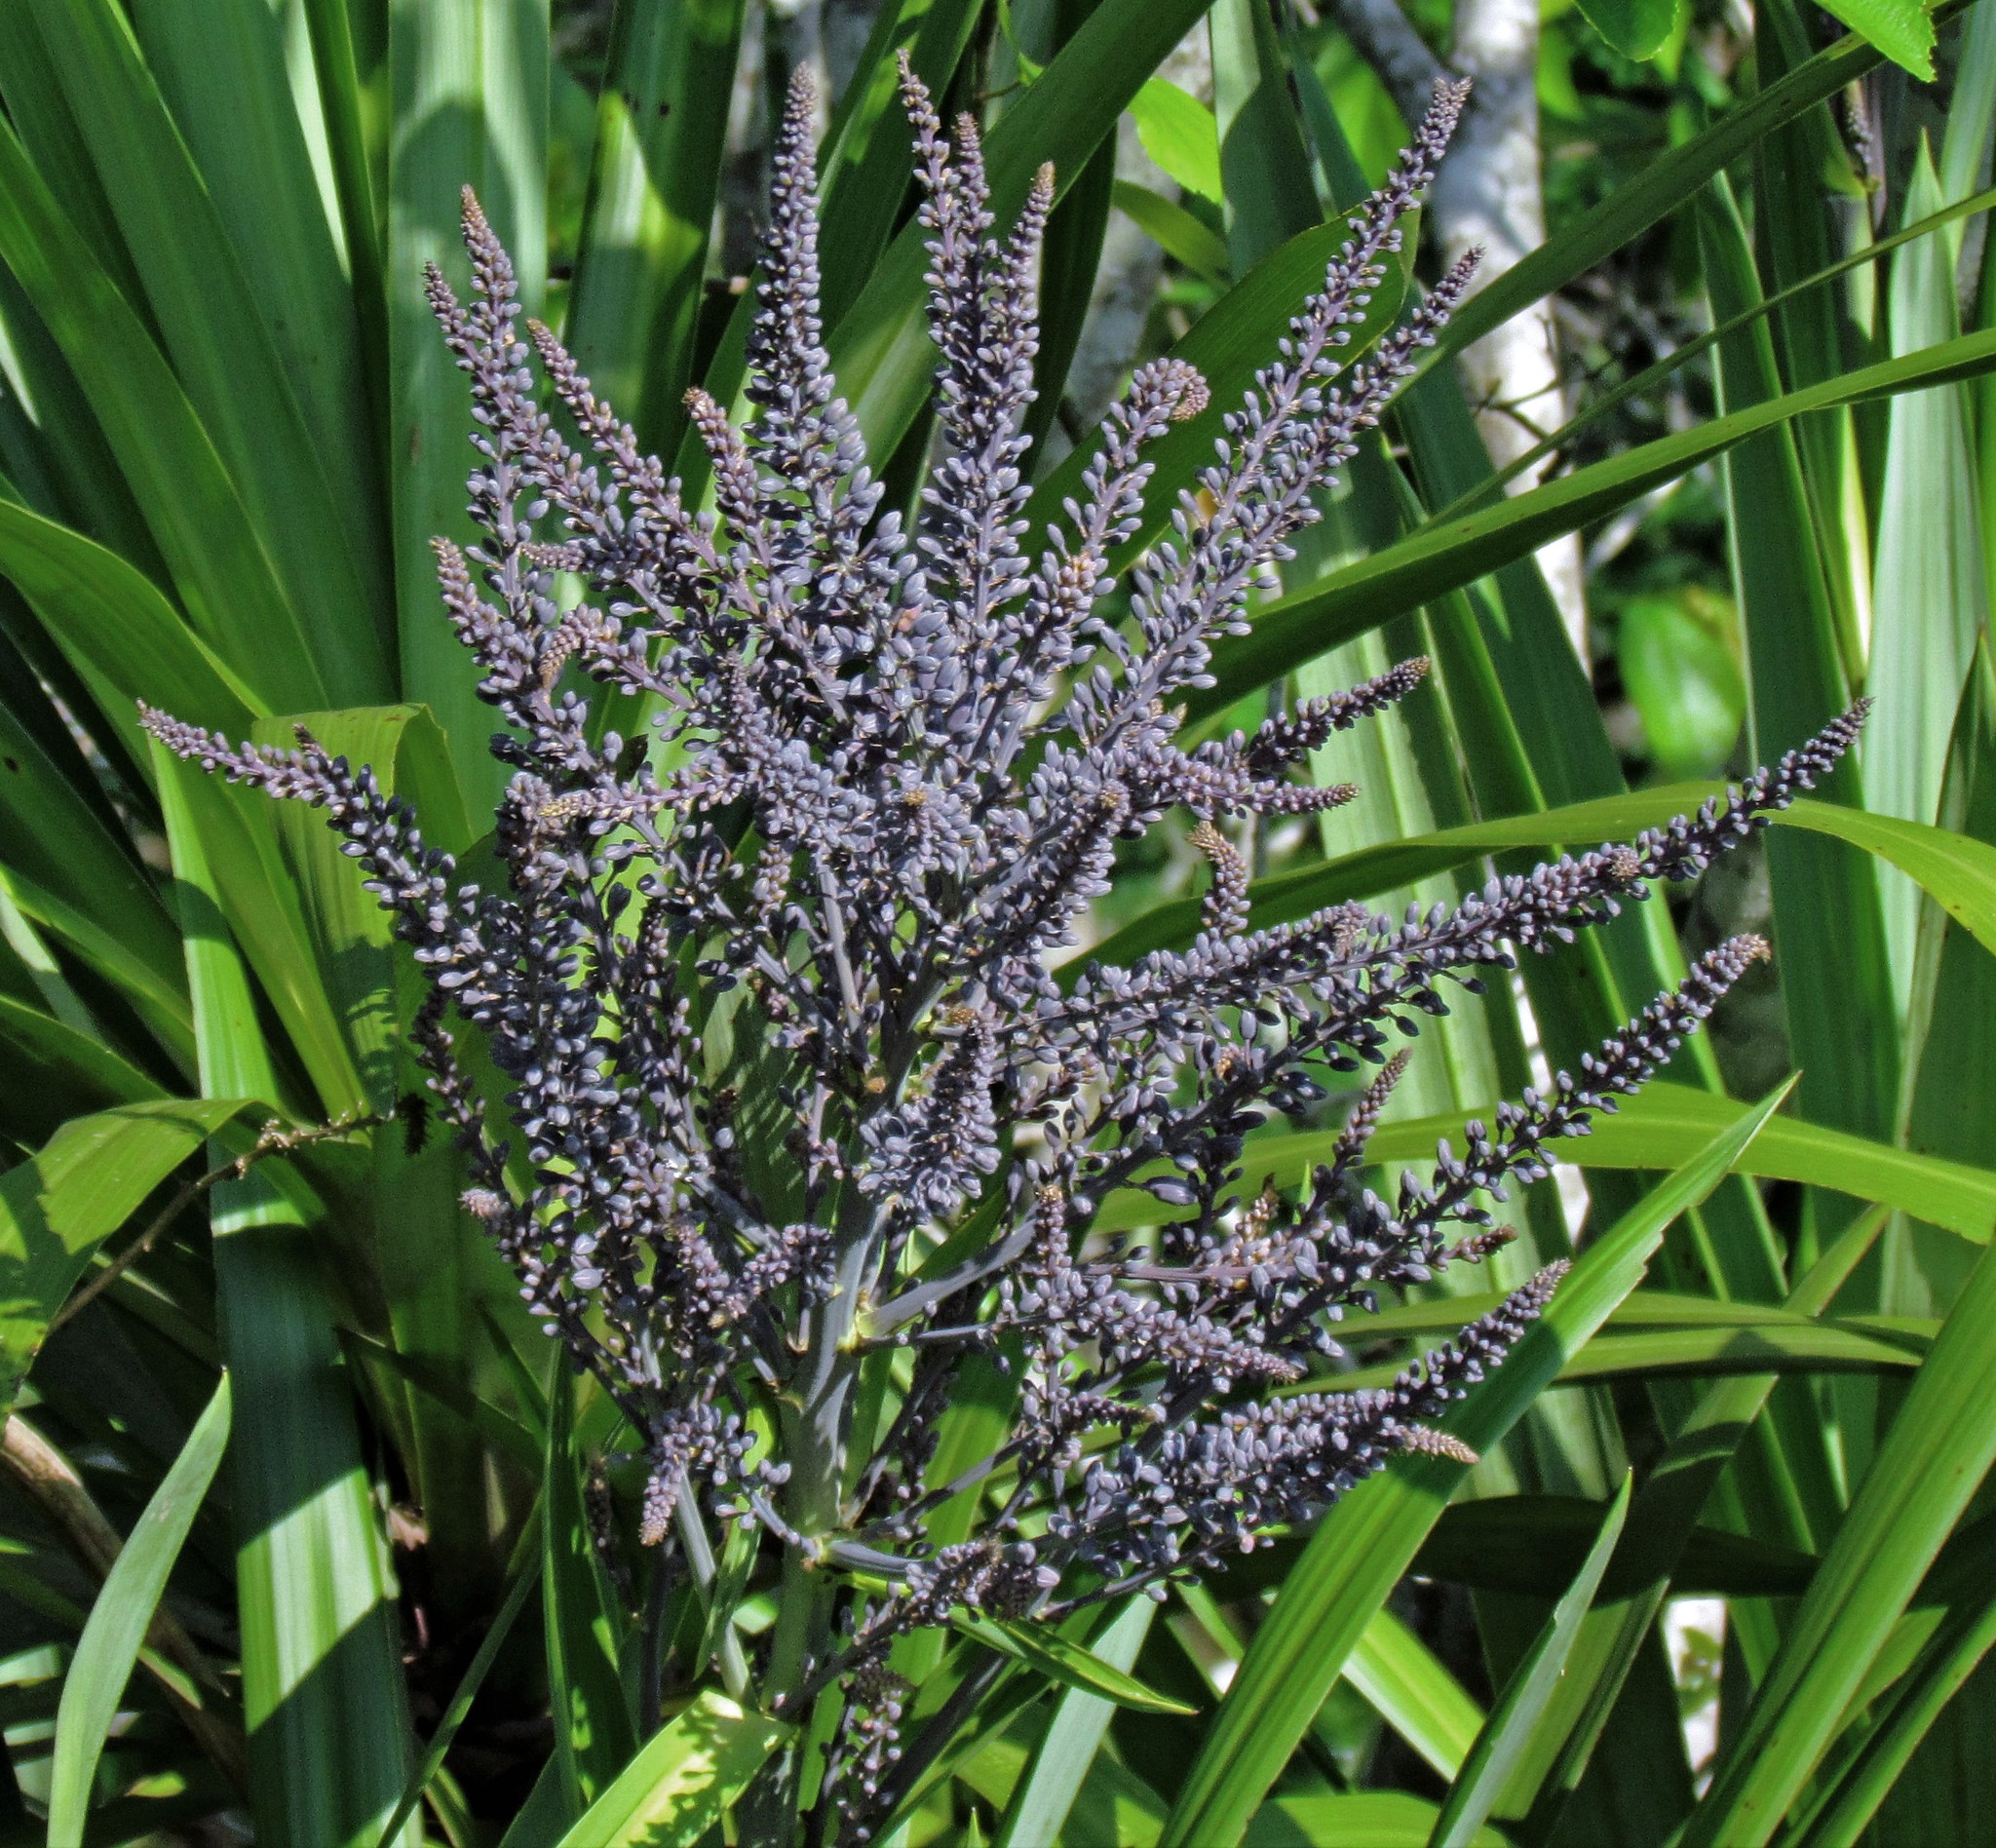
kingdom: Plantae
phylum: Tracheophyta
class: Liliopsida
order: Asparagales
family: Asparagaceae
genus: Cordyline
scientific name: Cordyline sellowiana
